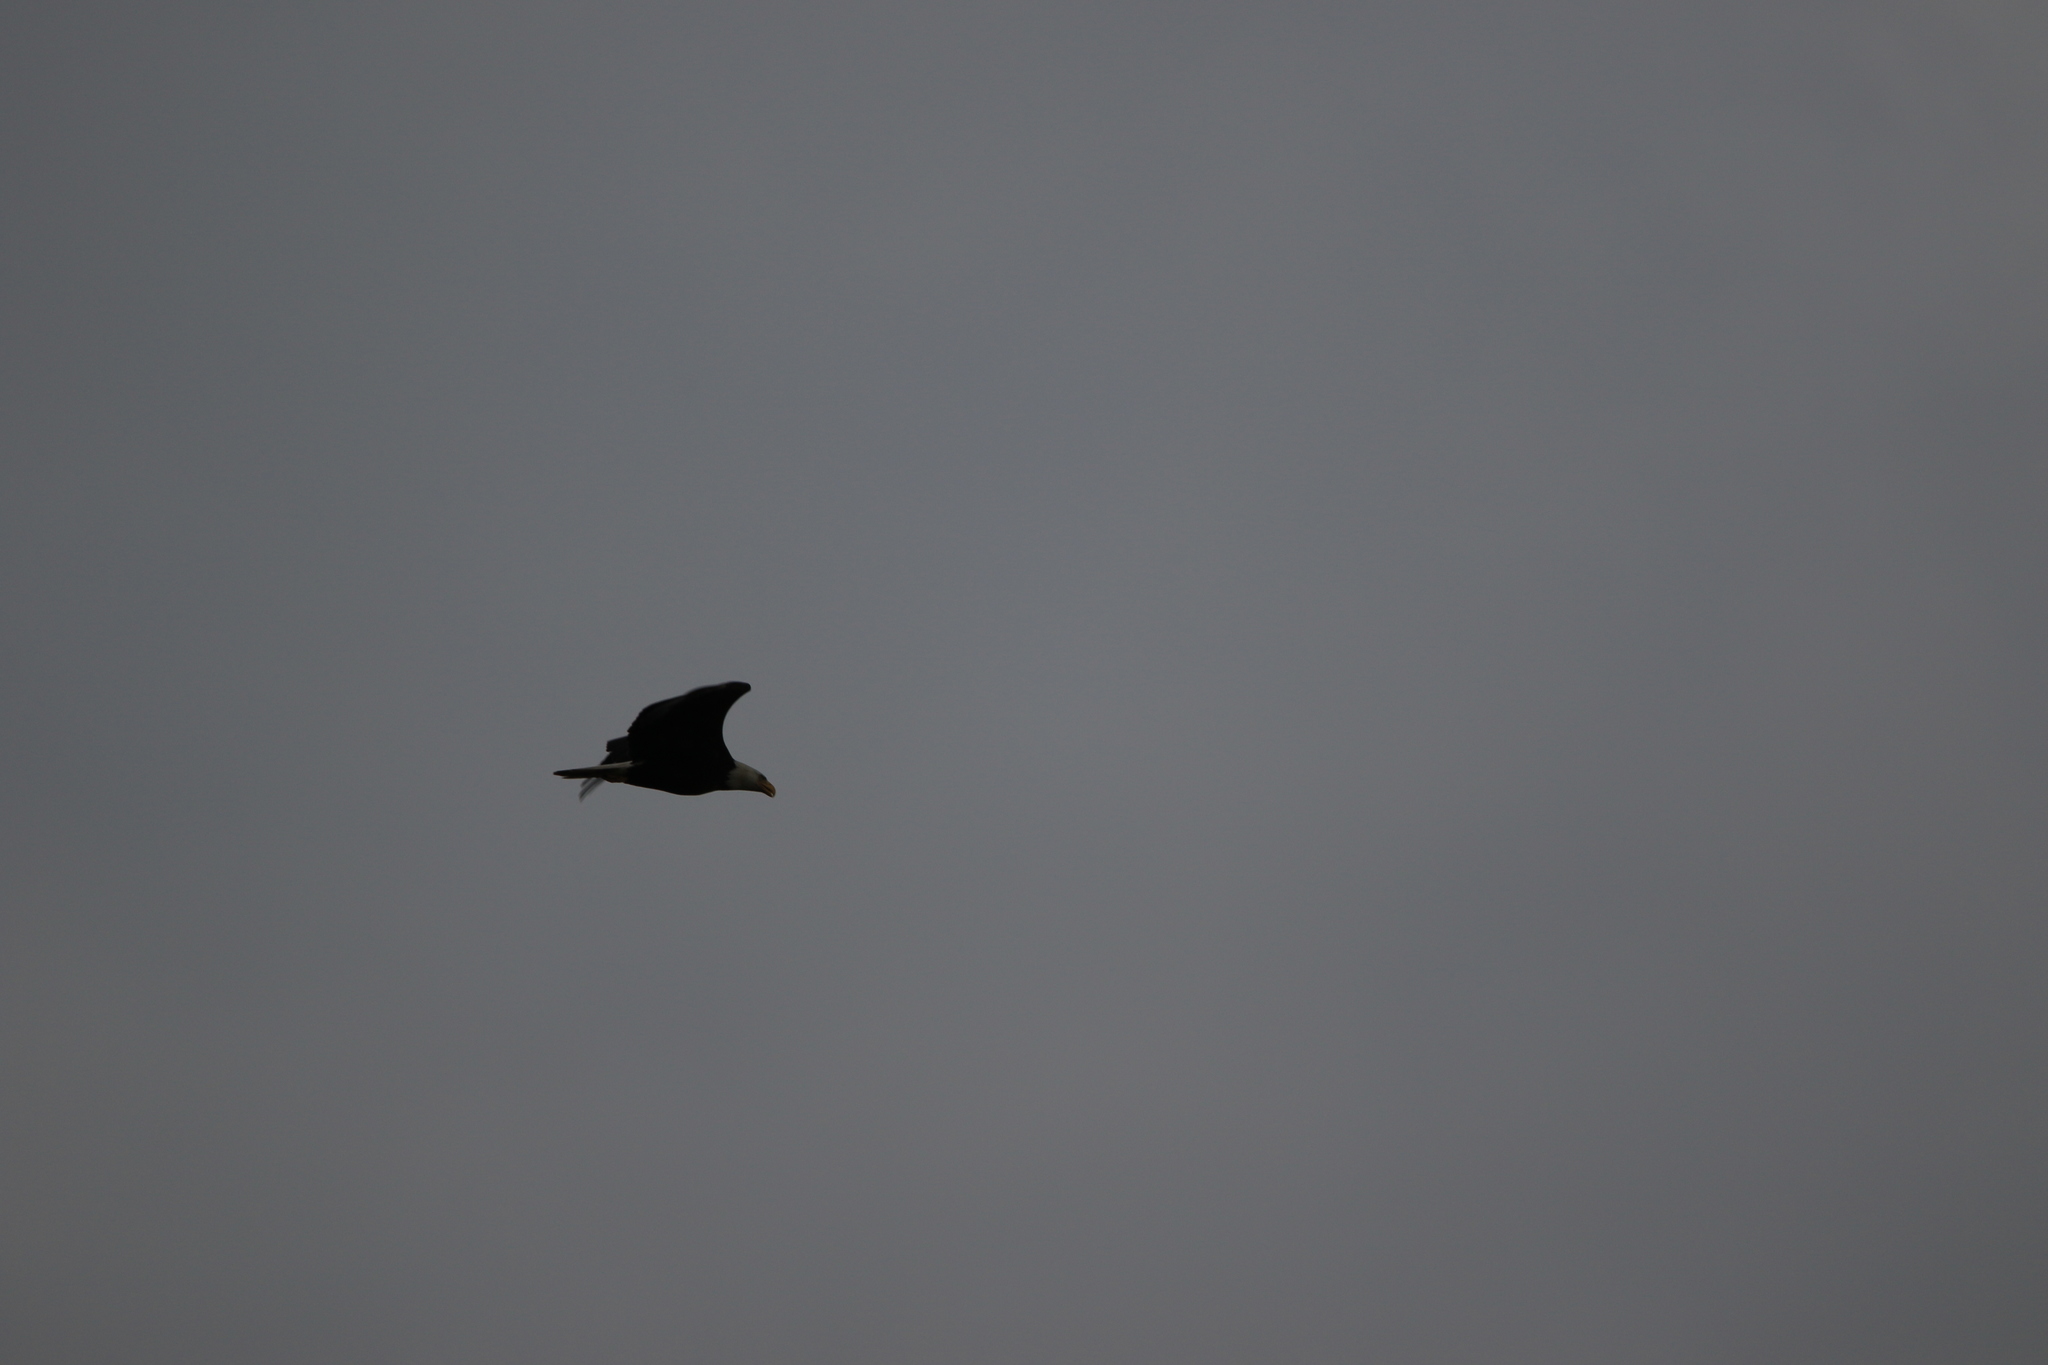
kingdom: Animalia
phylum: Chordata
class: Aves
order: Accipitriformes
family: Accipitridae
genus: Haliaeetus
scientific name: Haliaeetus leucocephalus
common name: Bald eagle
